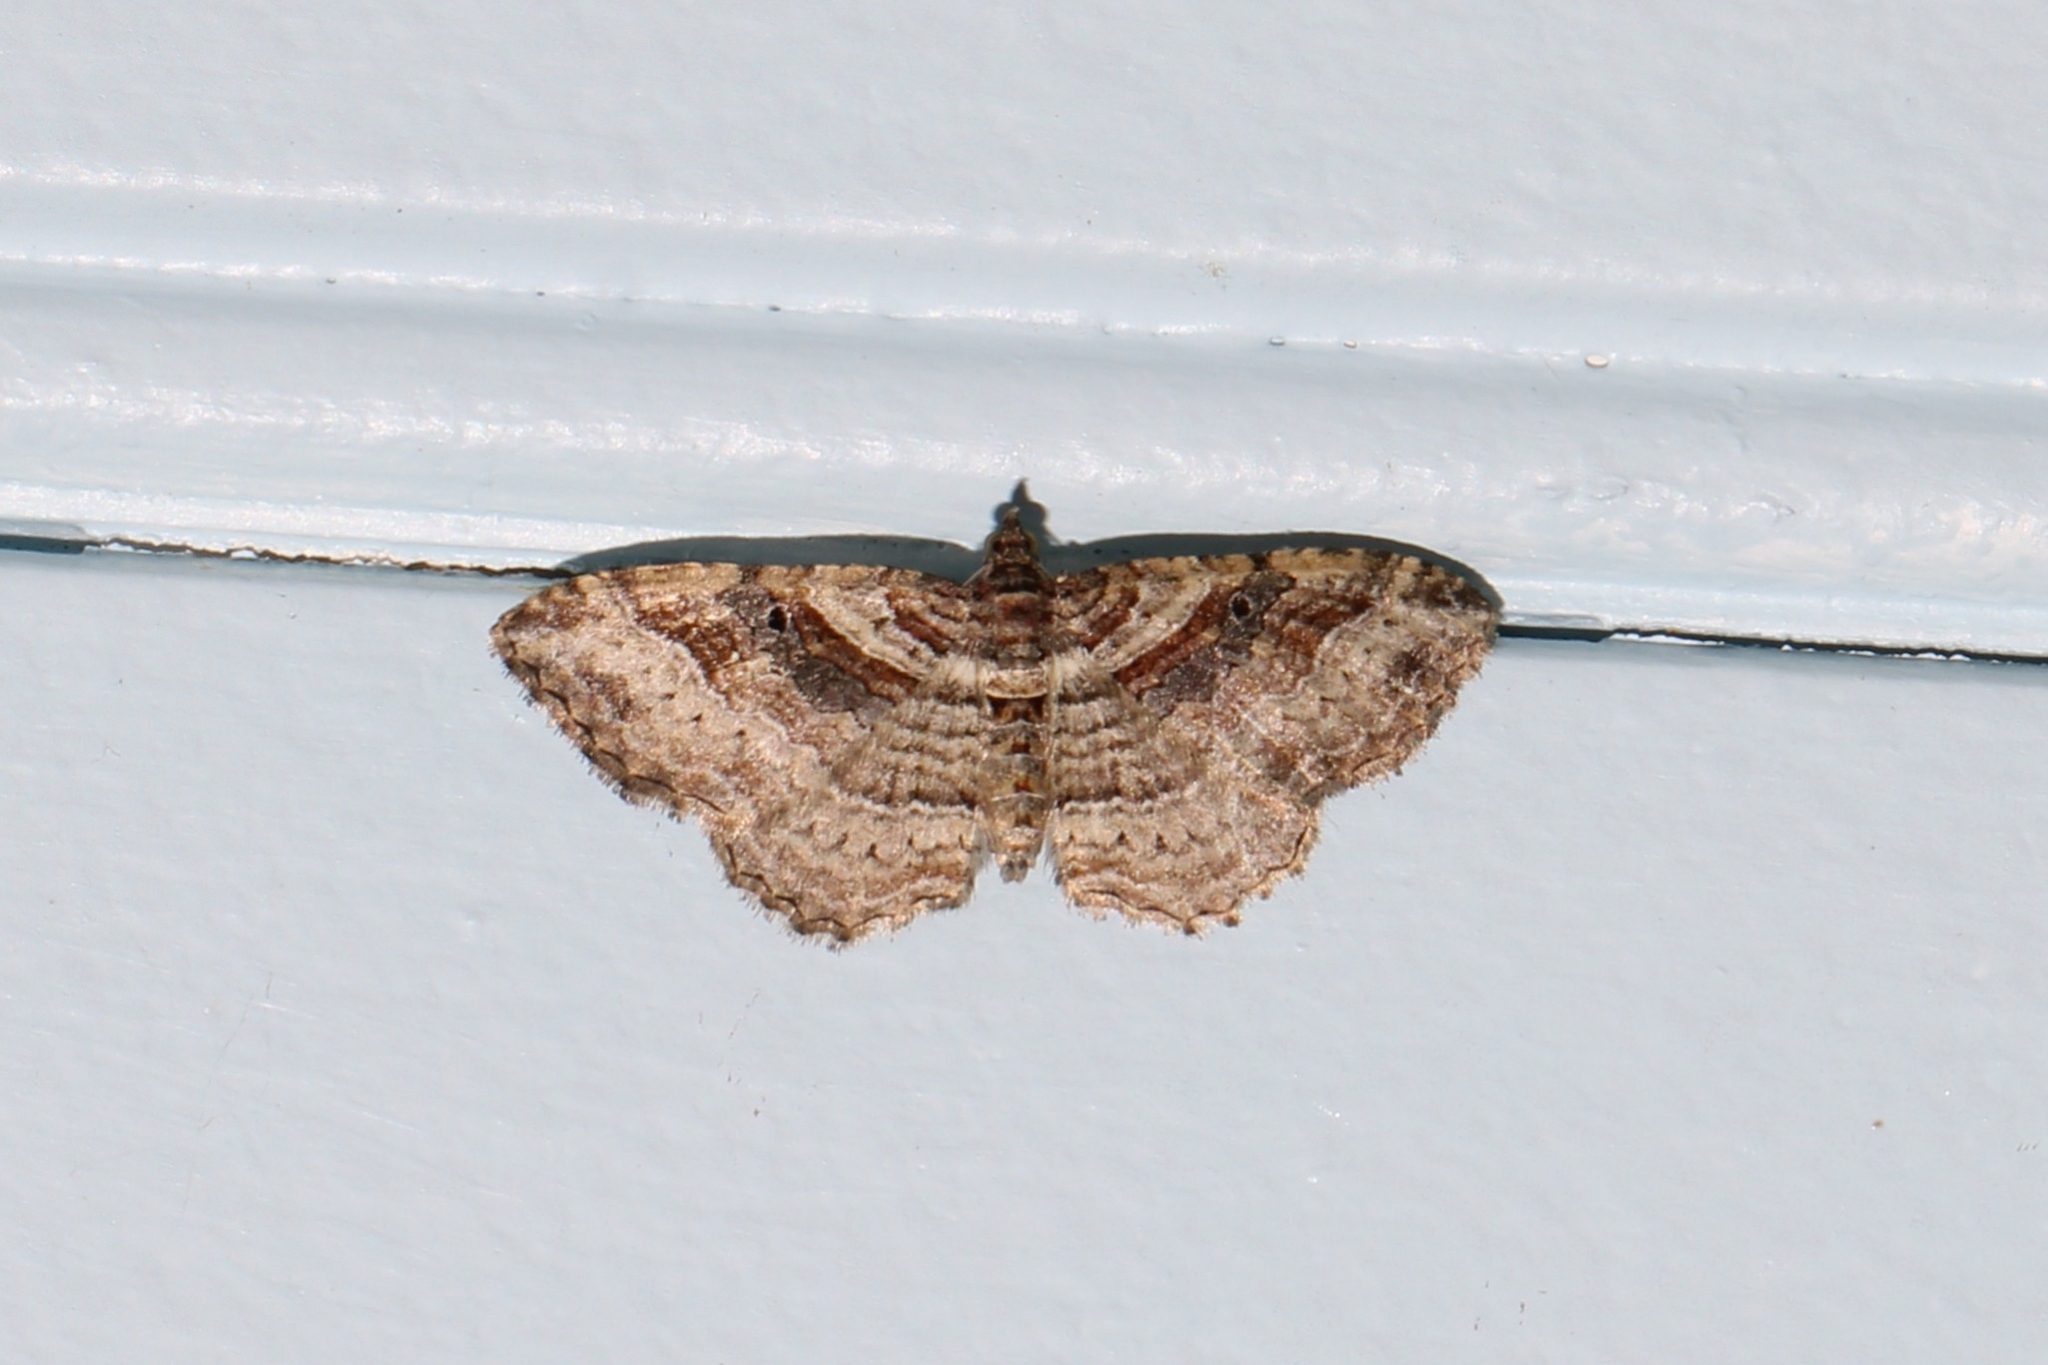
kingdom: Animalia
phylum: Arthropoda
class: Insecta
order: Lepidoptera
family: Geometridae
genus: Costaconvexa
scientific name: Costaconvexa centrostrigaria
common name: Bent-line carpet
